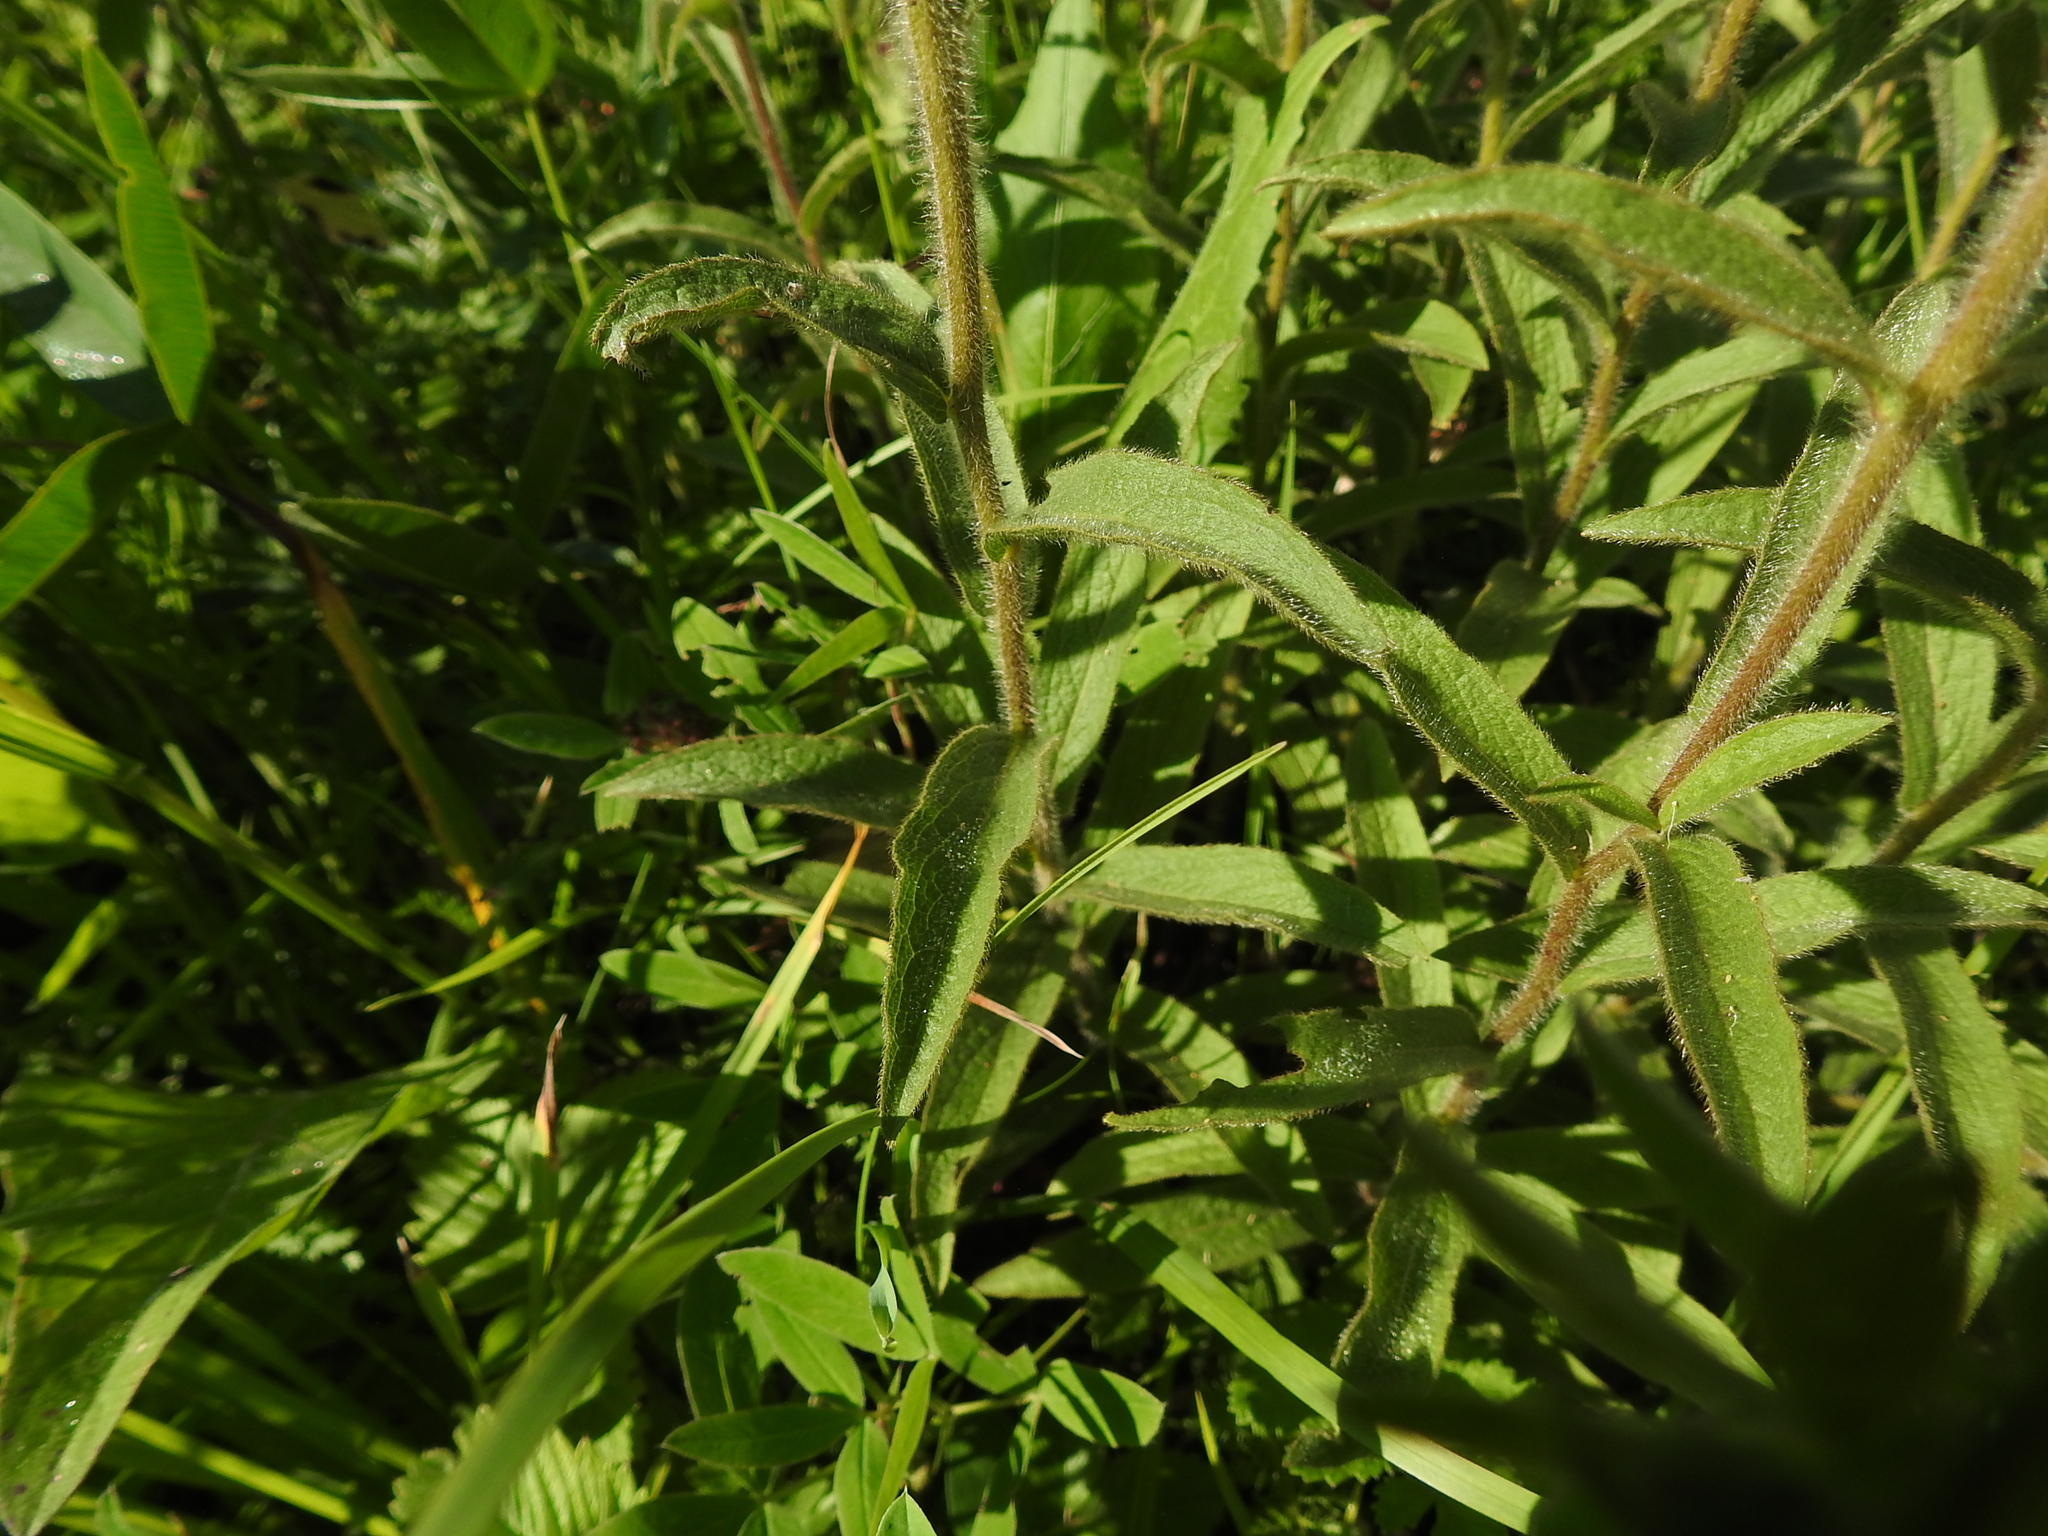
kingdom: Plantae
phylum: Tracheophyta
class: Magnoliopsida
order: Asterales
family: Asteraceae
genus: Pentanema
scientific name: Pentanema hirtum
